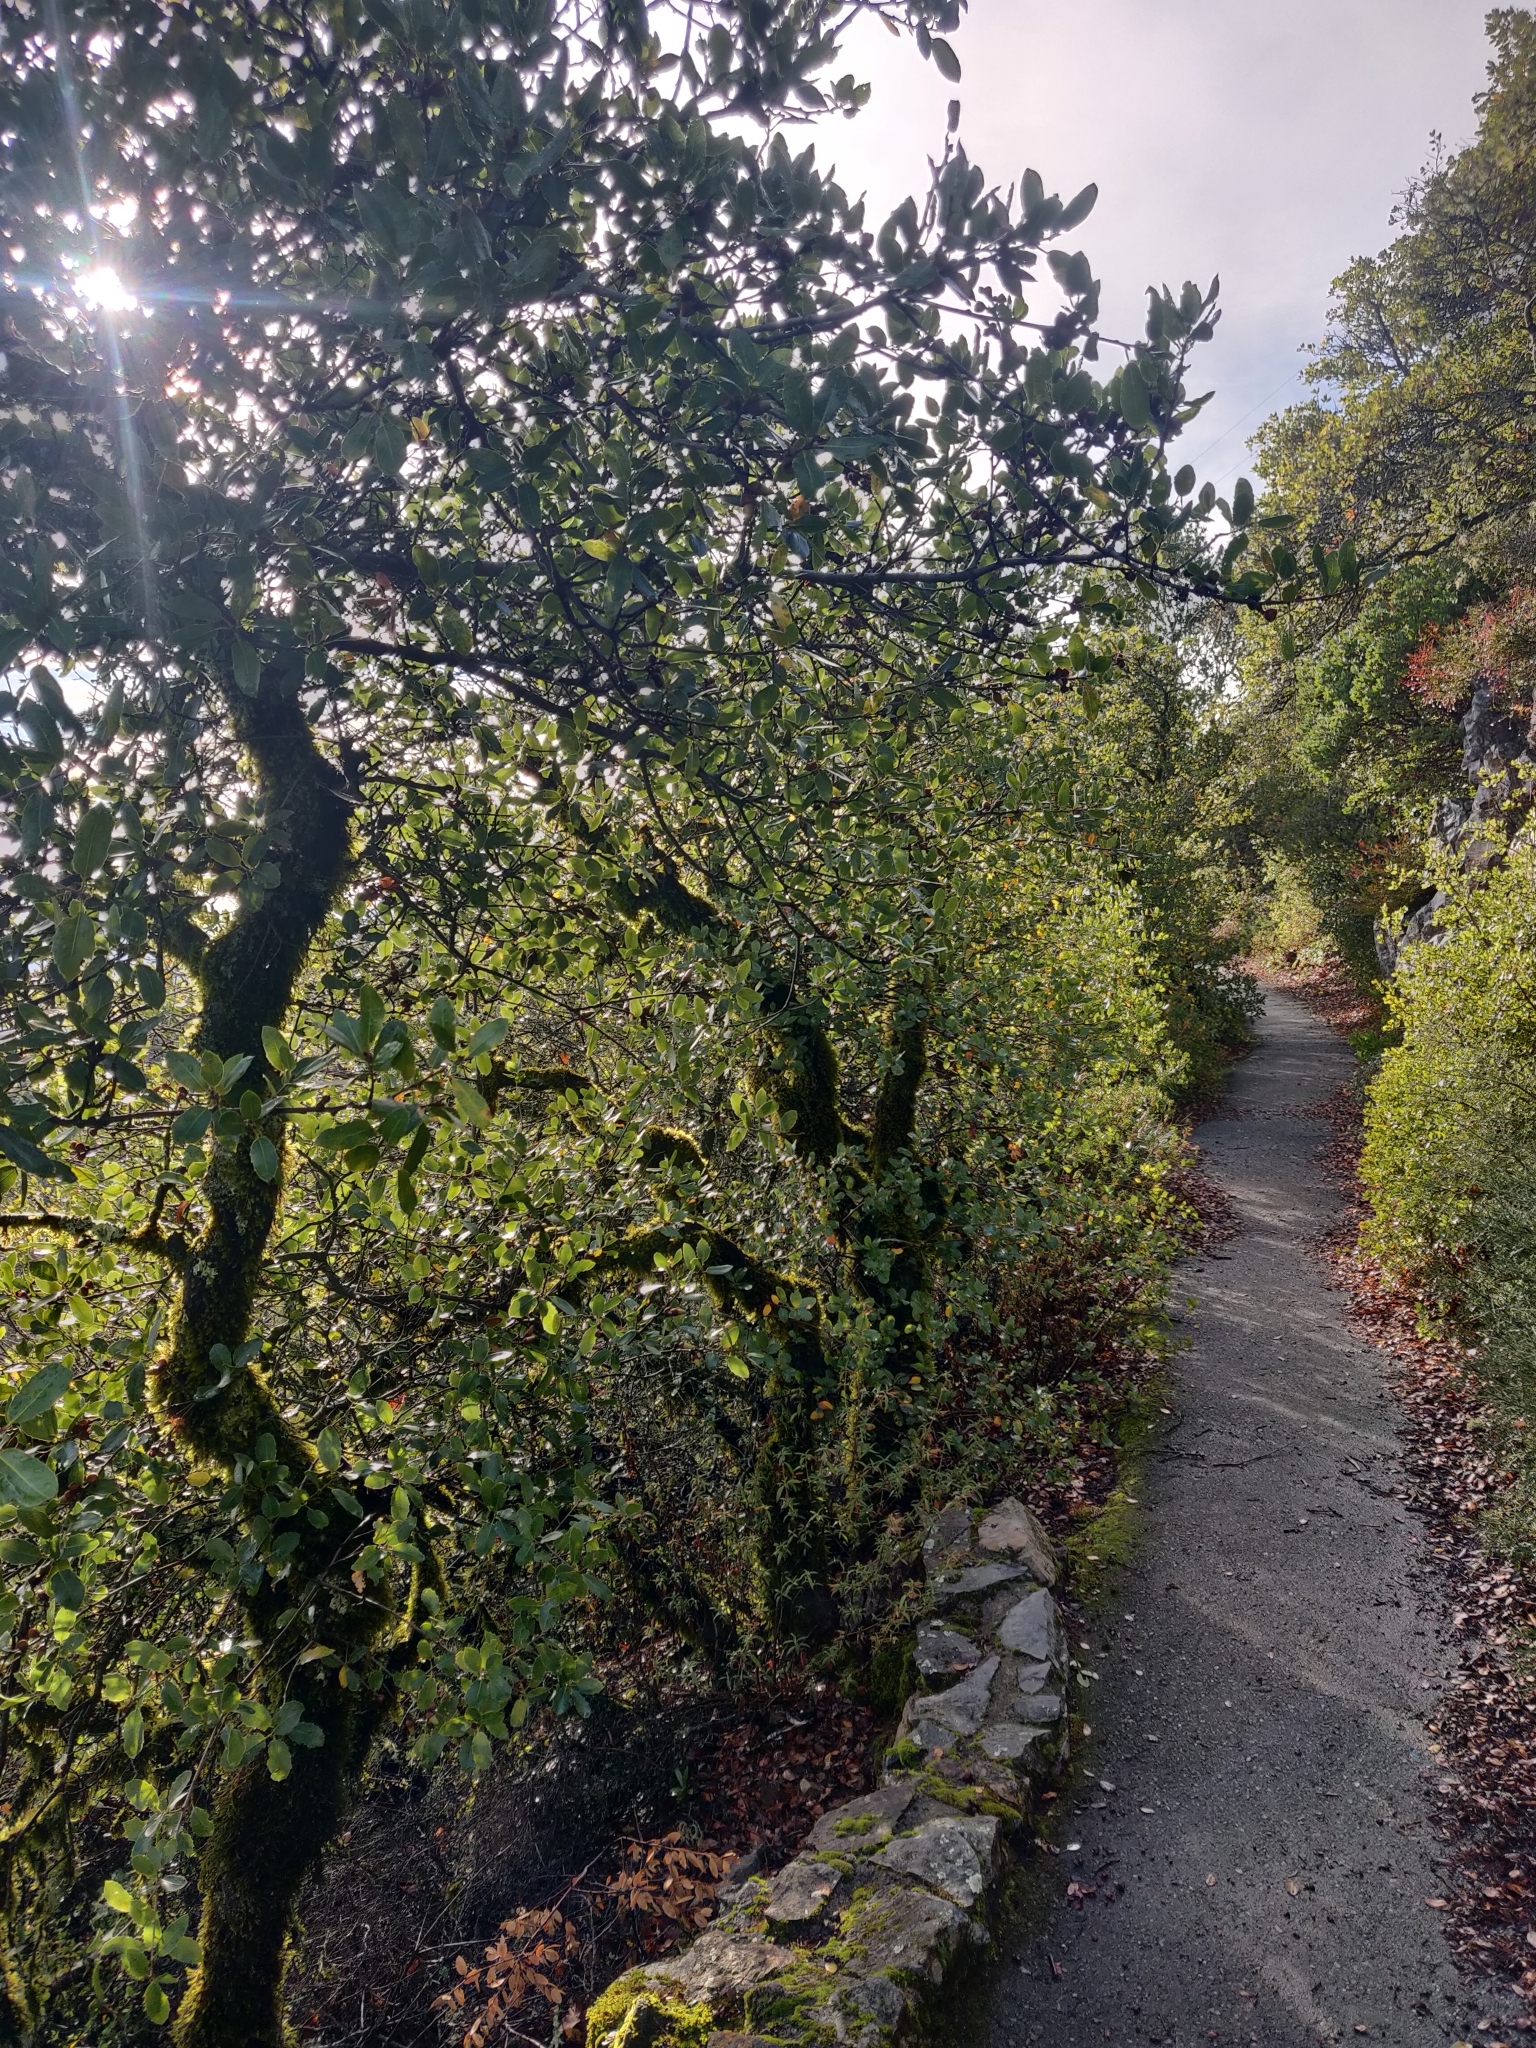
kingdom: Plantae
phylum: Tracheophyta
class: Magnoliopsida
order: Fagales
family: Fagaceae
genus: Quercus
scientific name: Quercus wislizeni
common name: Interior live oak
